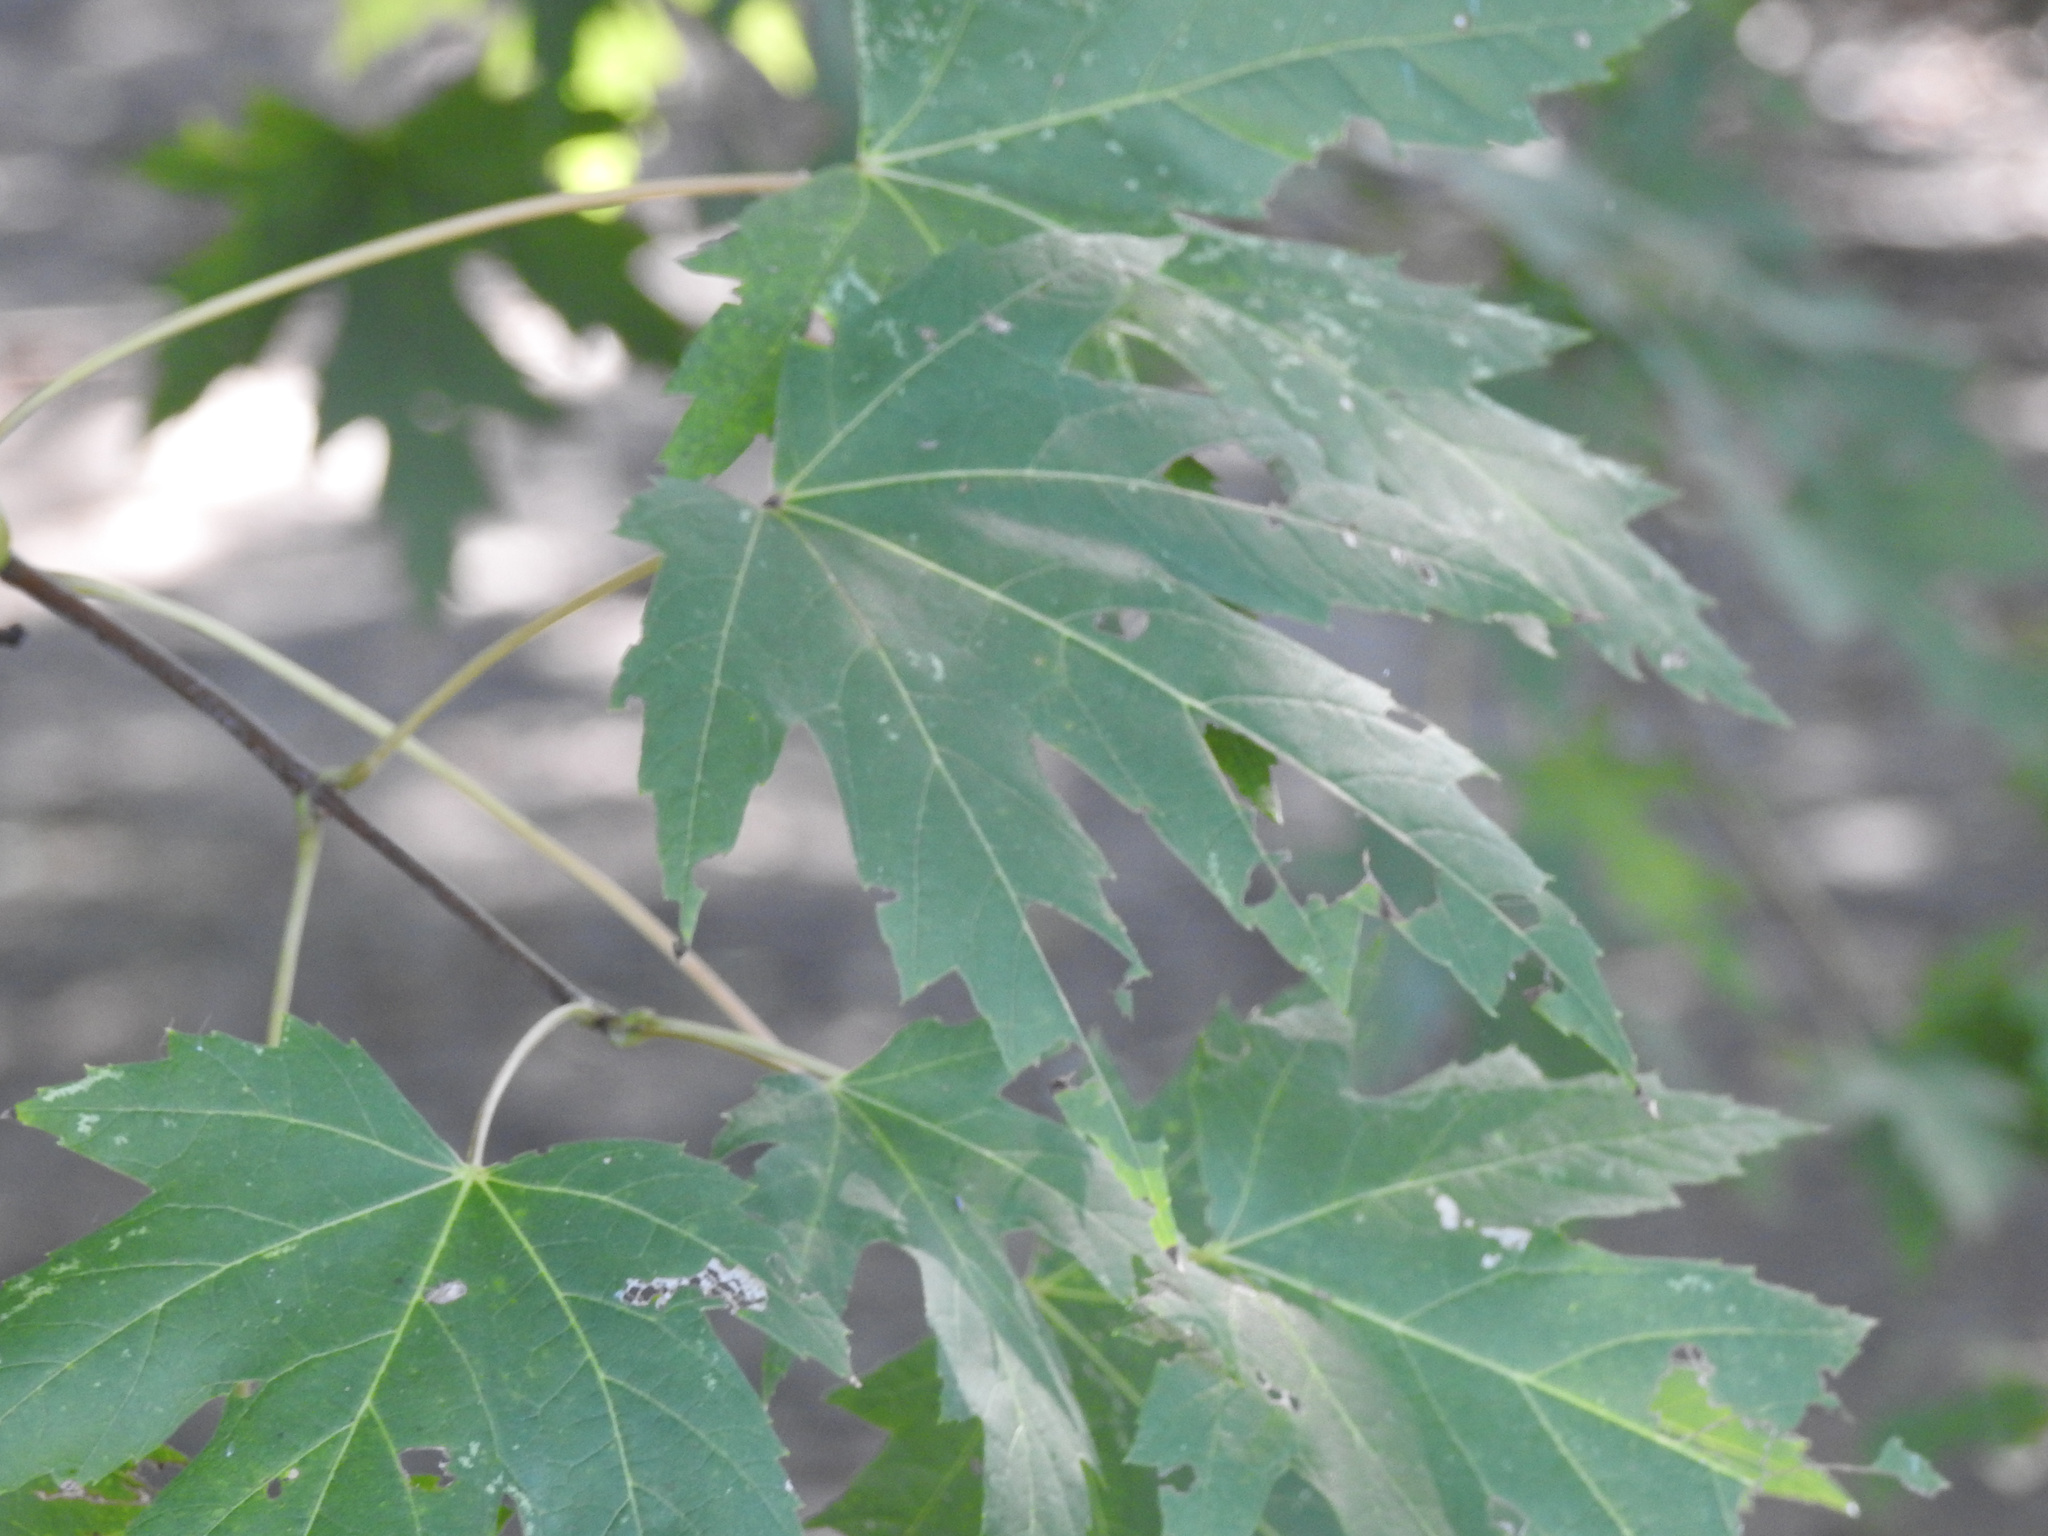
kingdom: Plantae
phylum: Tracheophyta
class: Magnoliopsida
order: Sapindales
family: Sapindaceae
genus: Acer
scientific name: Acer saccharinum
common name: Silver maple
